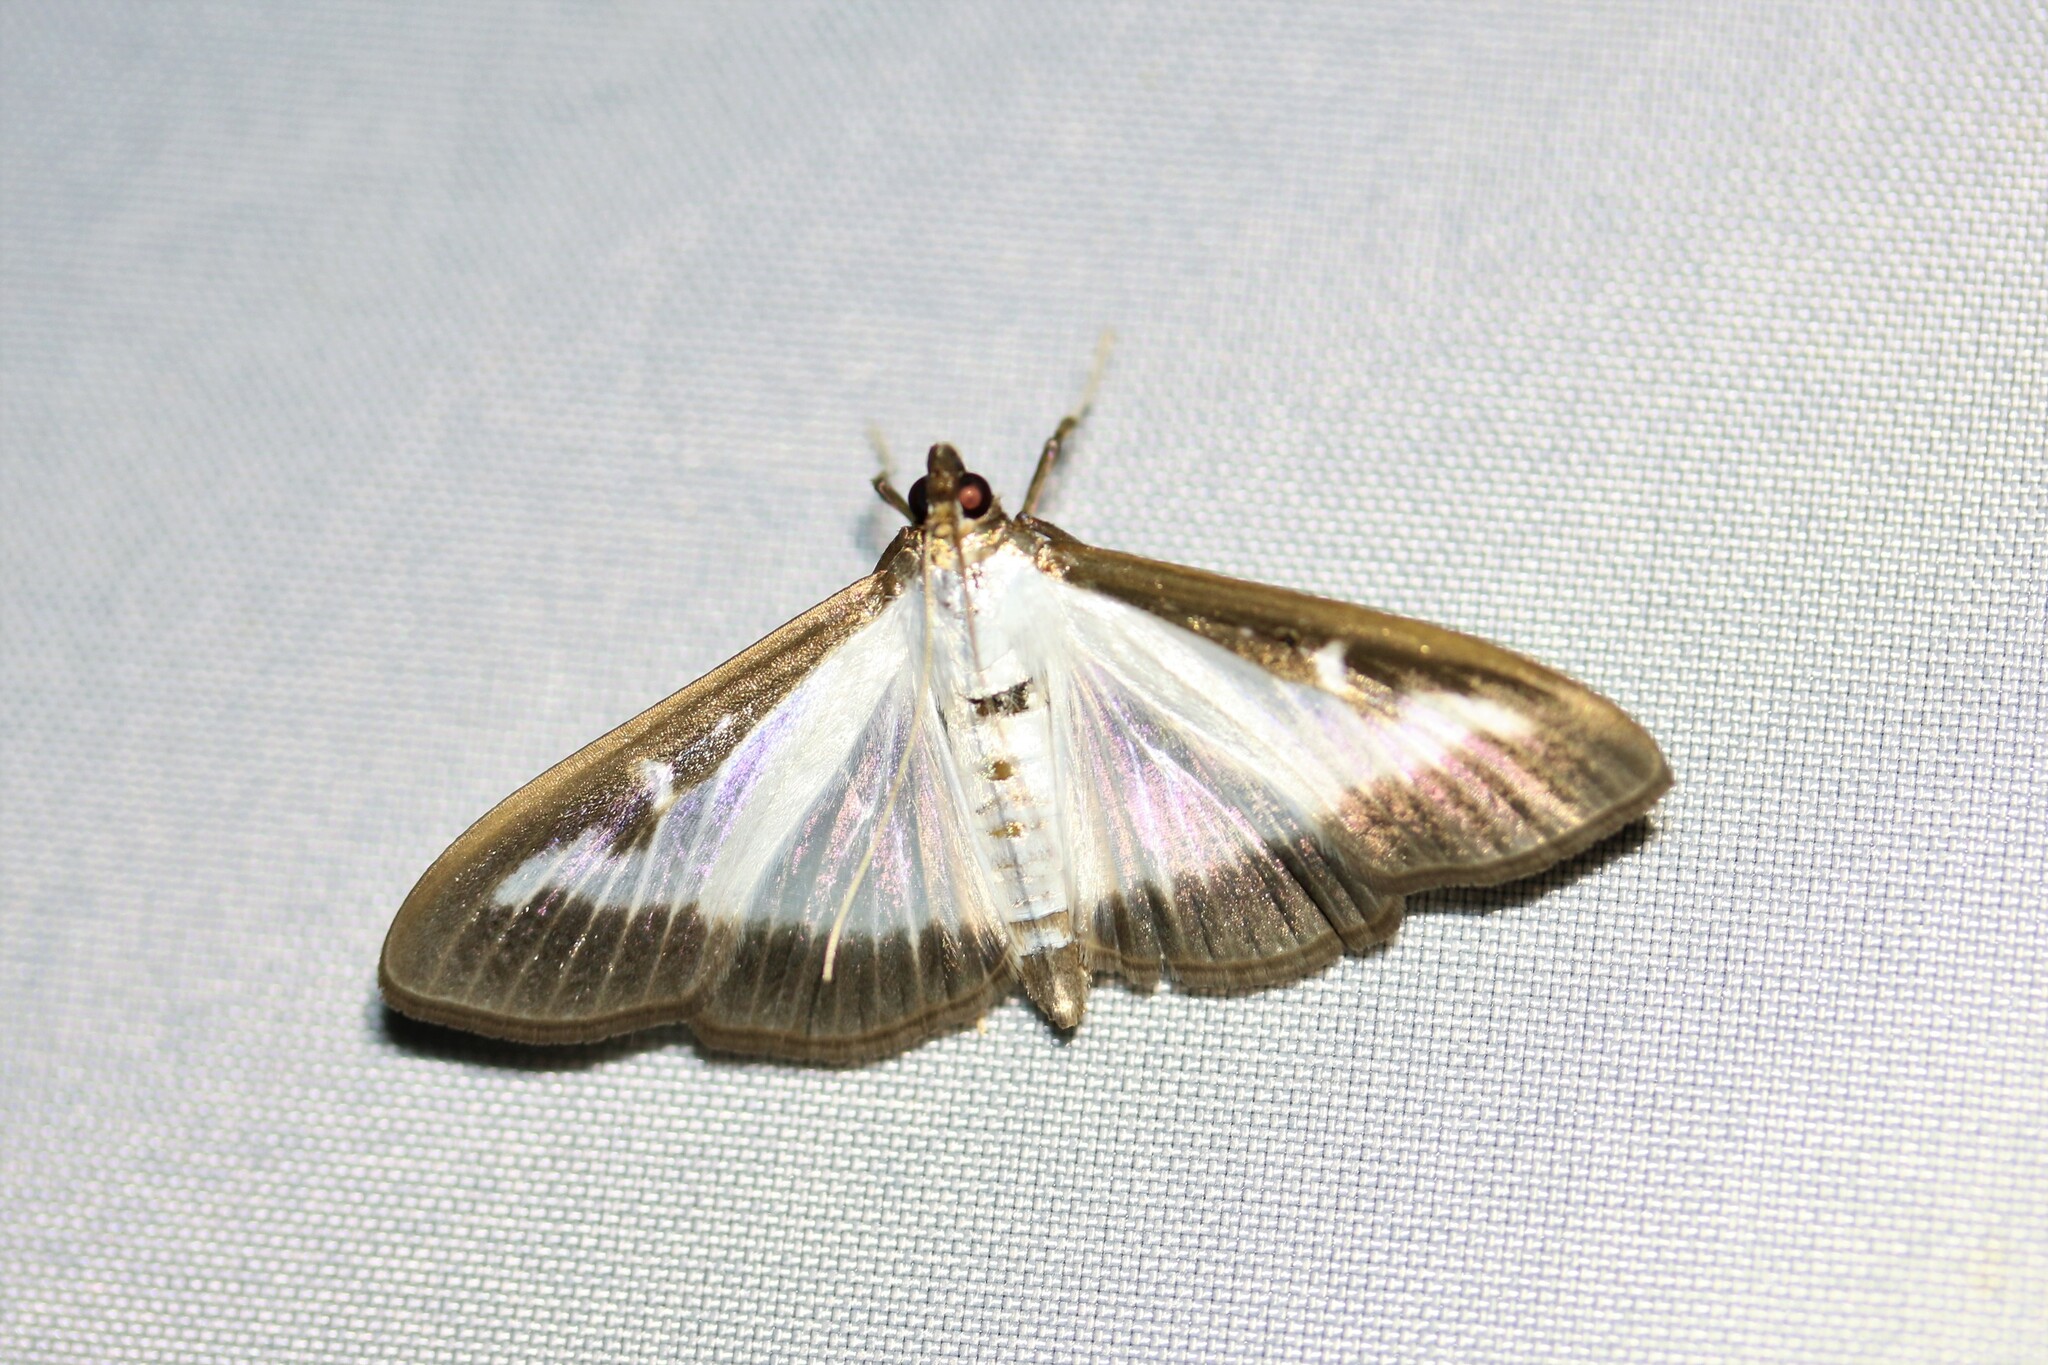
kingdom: Animalia
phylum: Arthropoda
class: Insecta
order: Lepidoptera
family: Crambidae
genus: Cydalima
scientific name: Cydalima perspectalis
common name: Box tree moth
